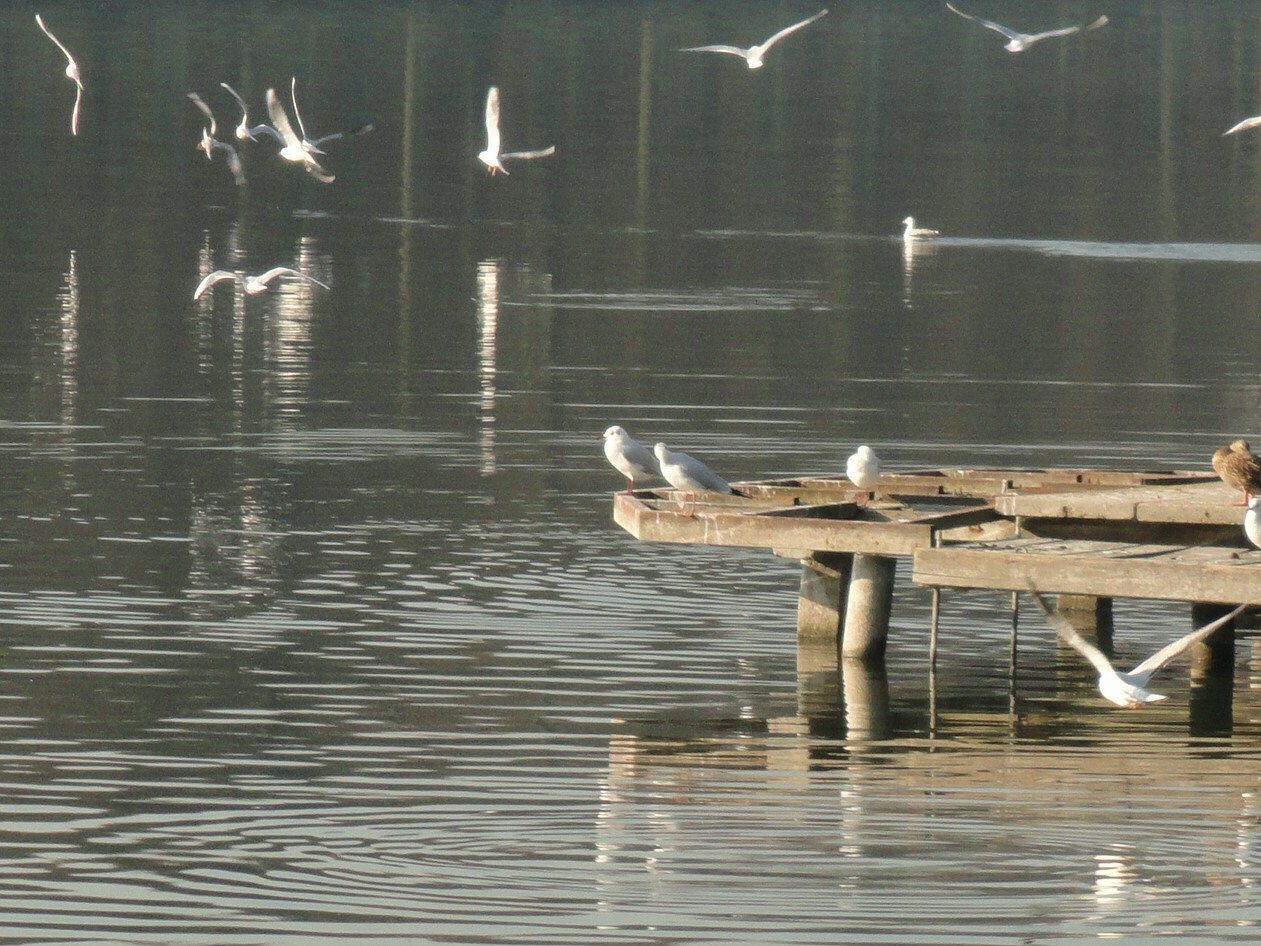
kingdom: Animalia
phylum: Chordata
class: Aves
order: Charadriiformes
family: Laridae
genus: Chroicocephalus
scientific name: Chroicocephalus ridibundus
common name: Black-headed gull
